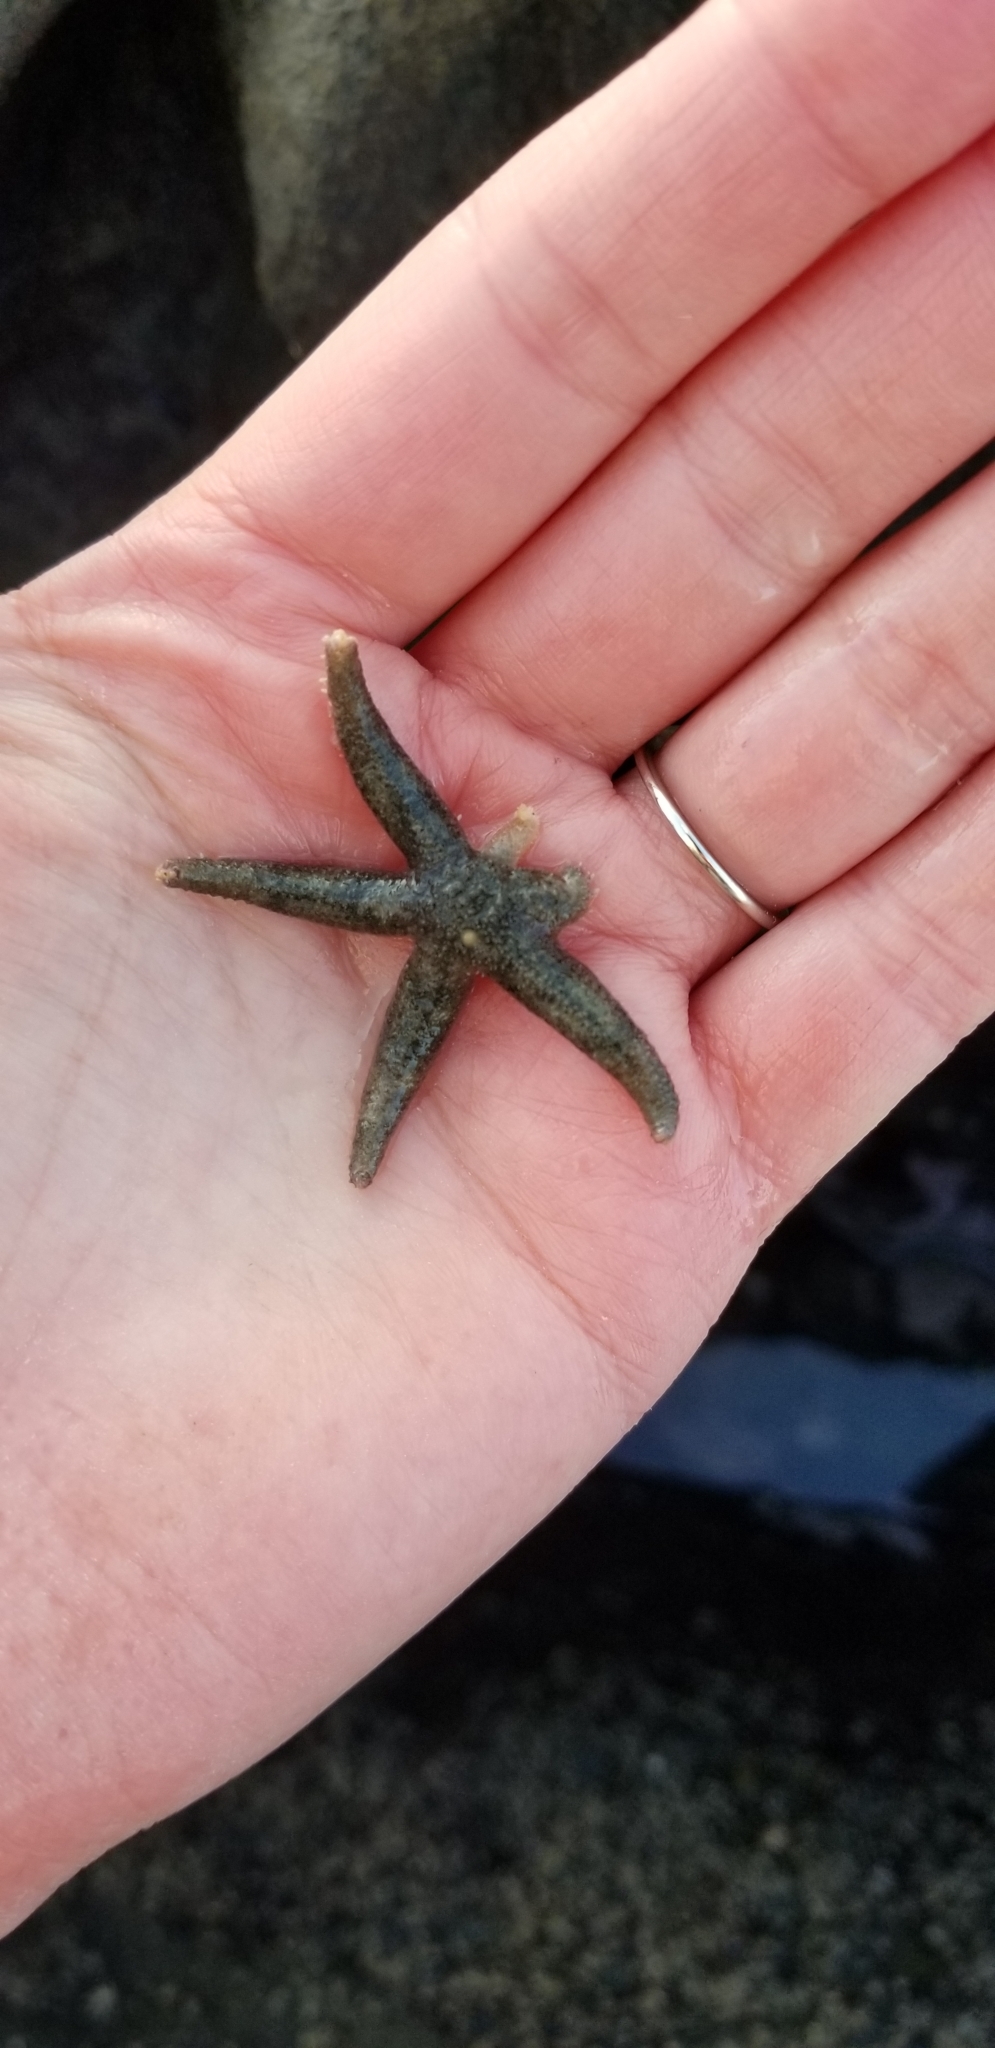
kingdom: Animalia
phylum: Echinodermata
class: Asteroidea
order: Forcipulatida
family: Asteriidae
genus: Leptasterias
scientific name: Leptasterias hexactis
